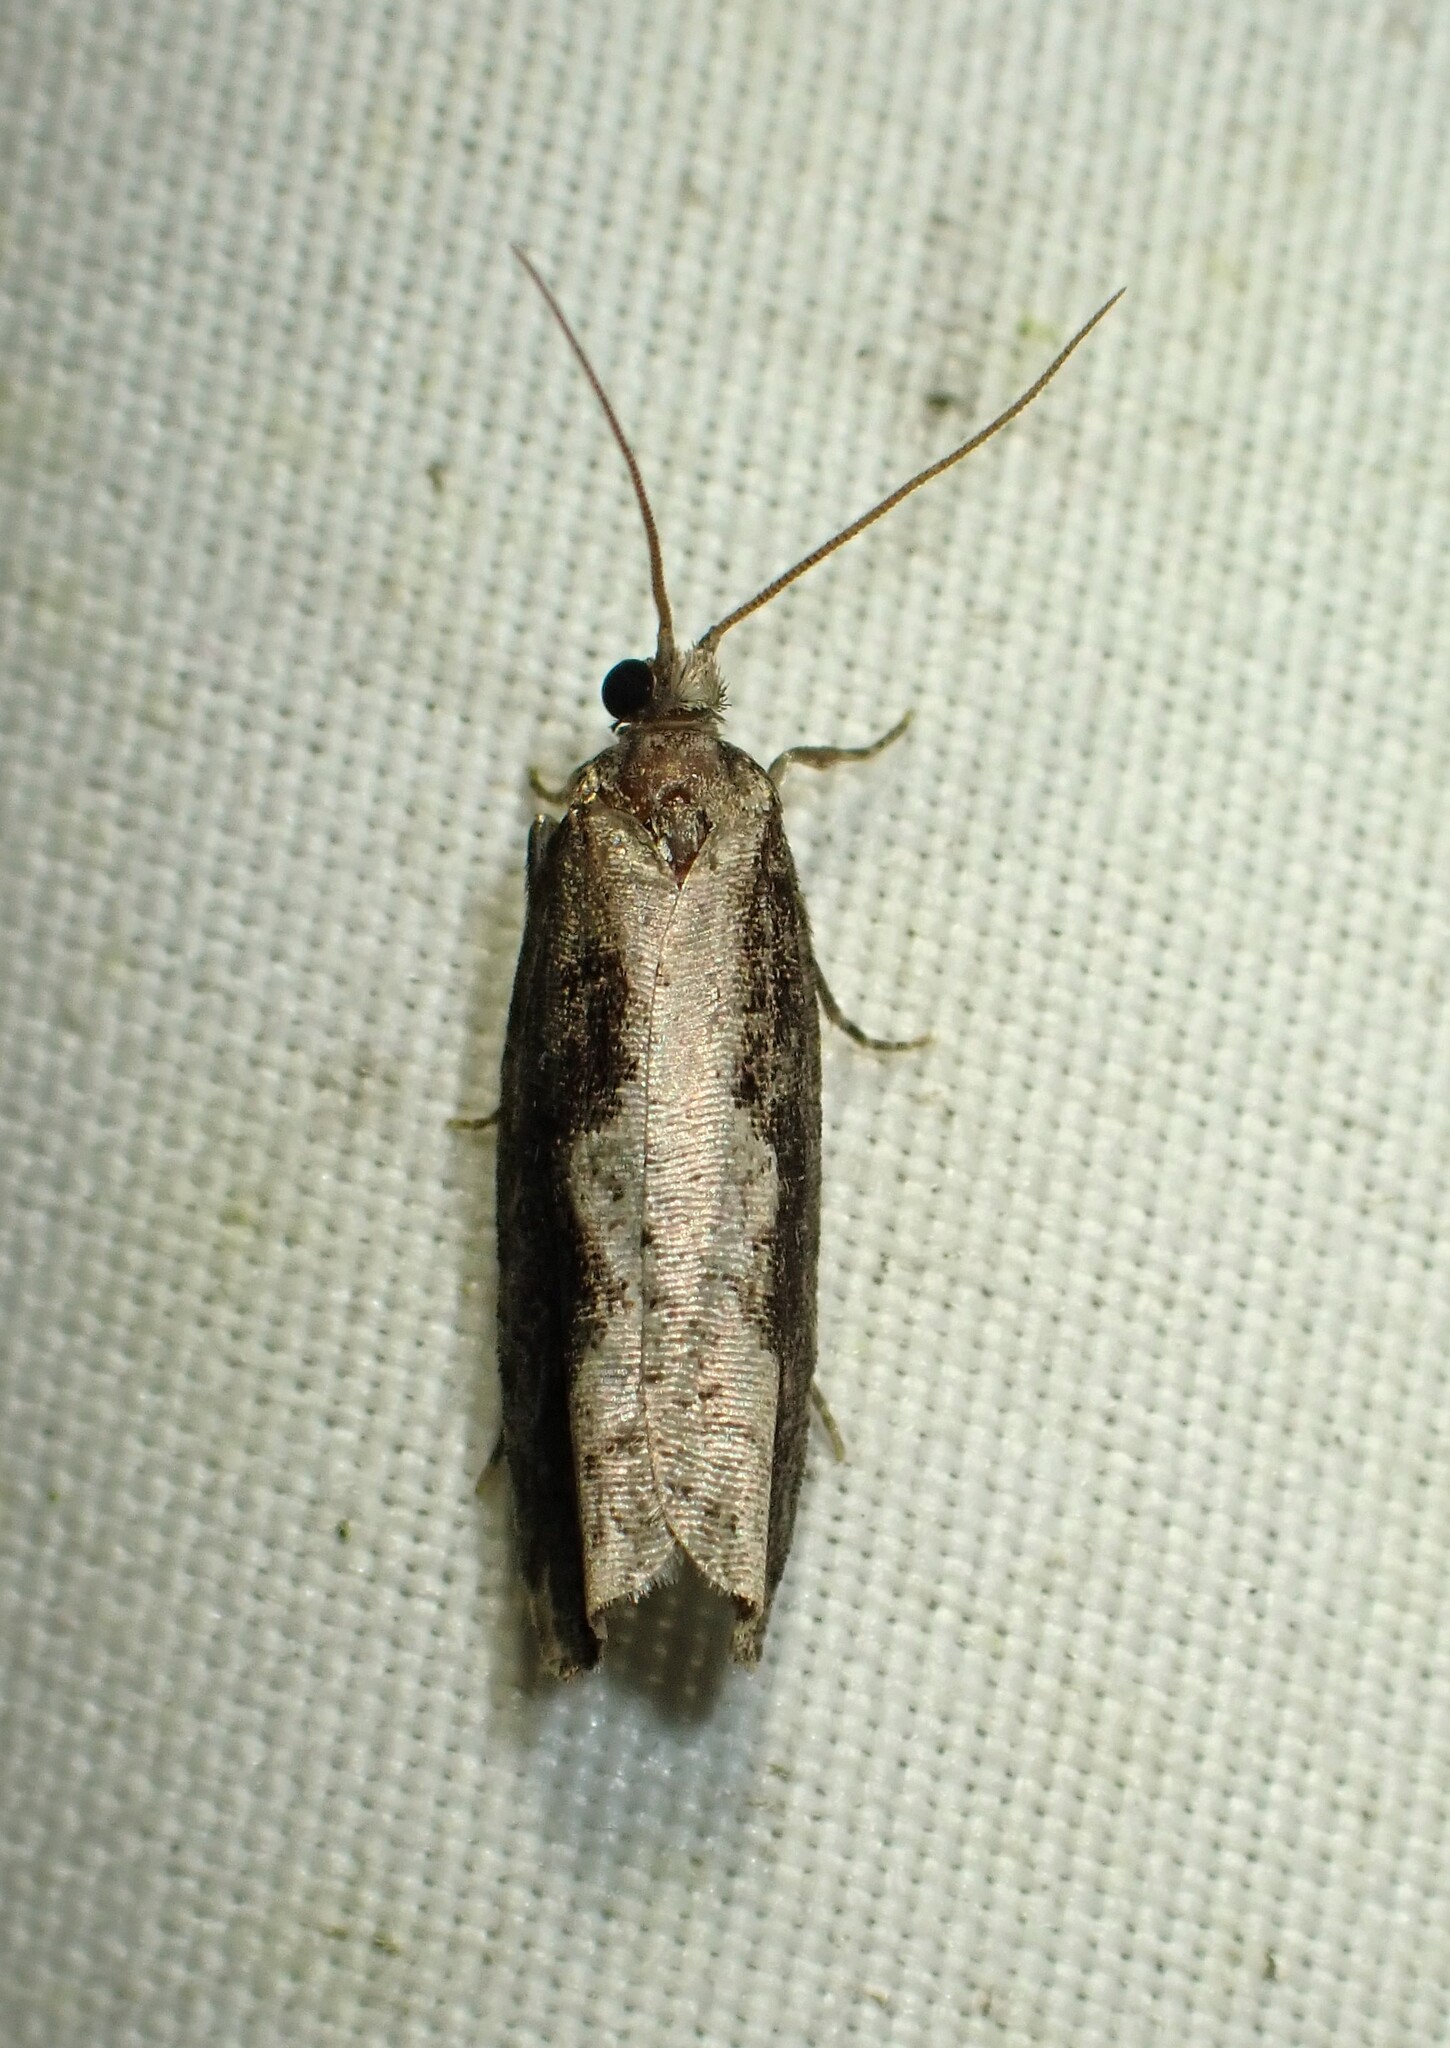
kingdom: Animalia
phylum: Arthropoda
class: Insecta
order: Lepidoptera
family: Tortricidae
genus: Epinotia
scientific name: Epinotia lindana
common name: Diamondback epinotia moth
